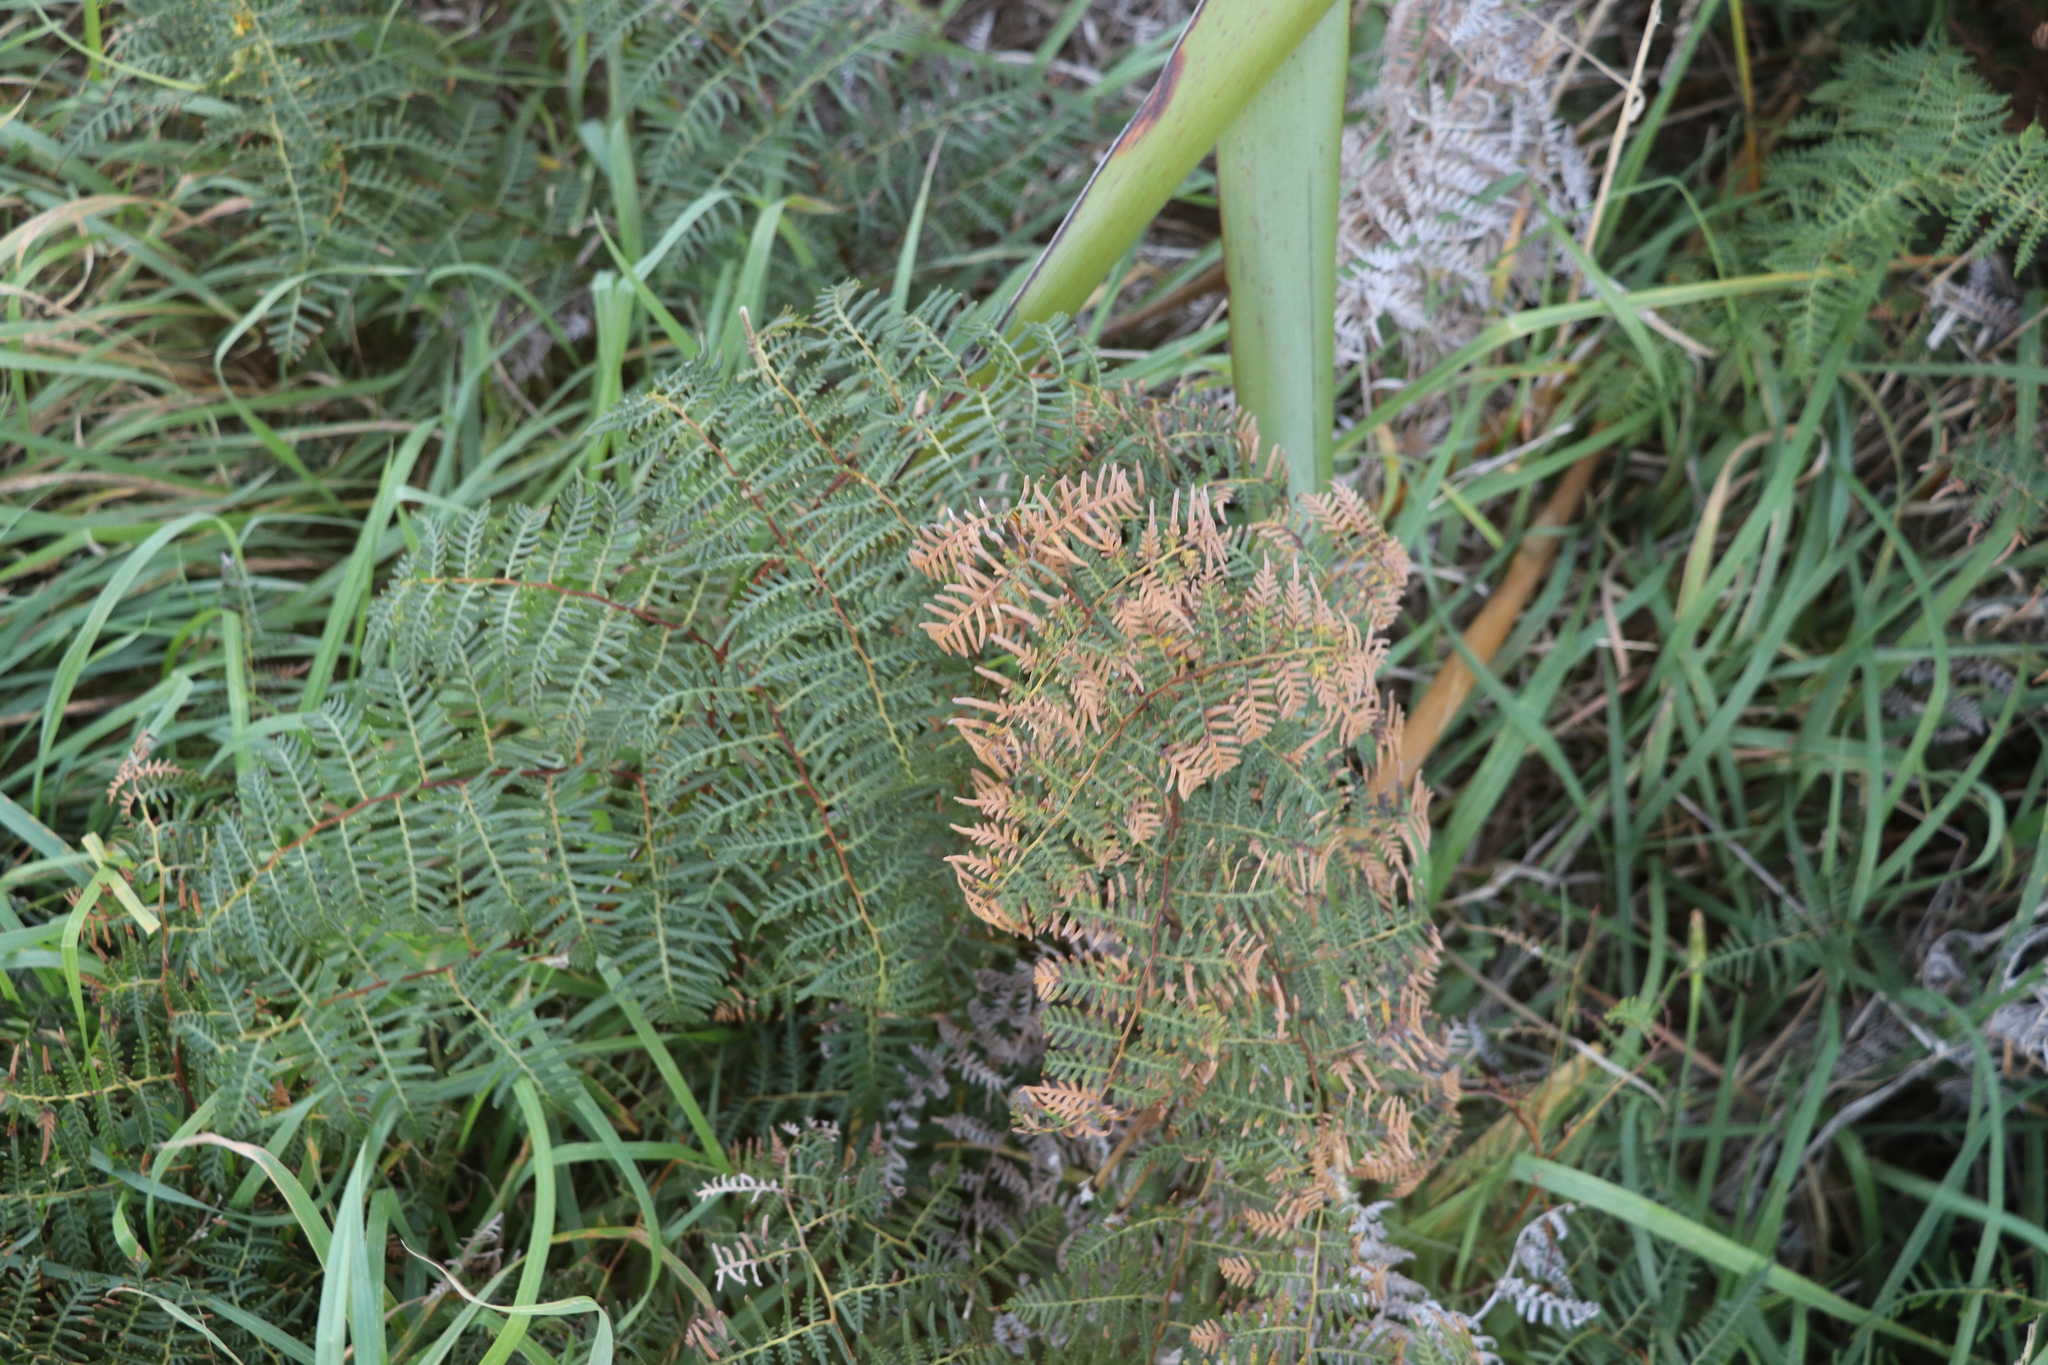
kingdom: Plantae
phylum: Tracheophyta
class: Polypodiopsida
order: Polypodiales
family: Dennstaedtiaceae
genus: Pteridium
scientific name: Pteridium esculentum
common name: Bracken fern
